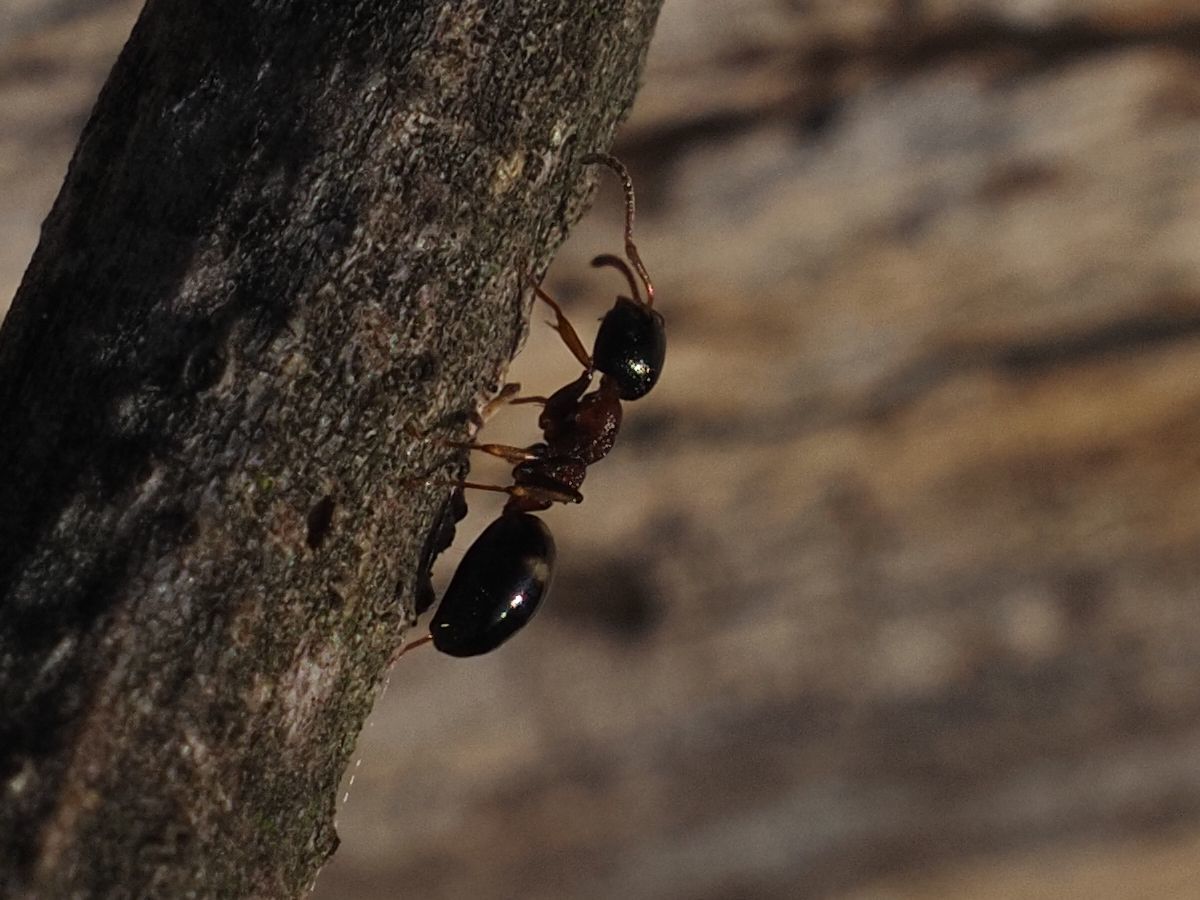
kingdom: Animalia
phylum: Arthropoda
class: Insecta
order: Hymenoptera
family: Formicidae
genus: Dolichoderus
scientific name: Dolichoderus quadripunctatus
